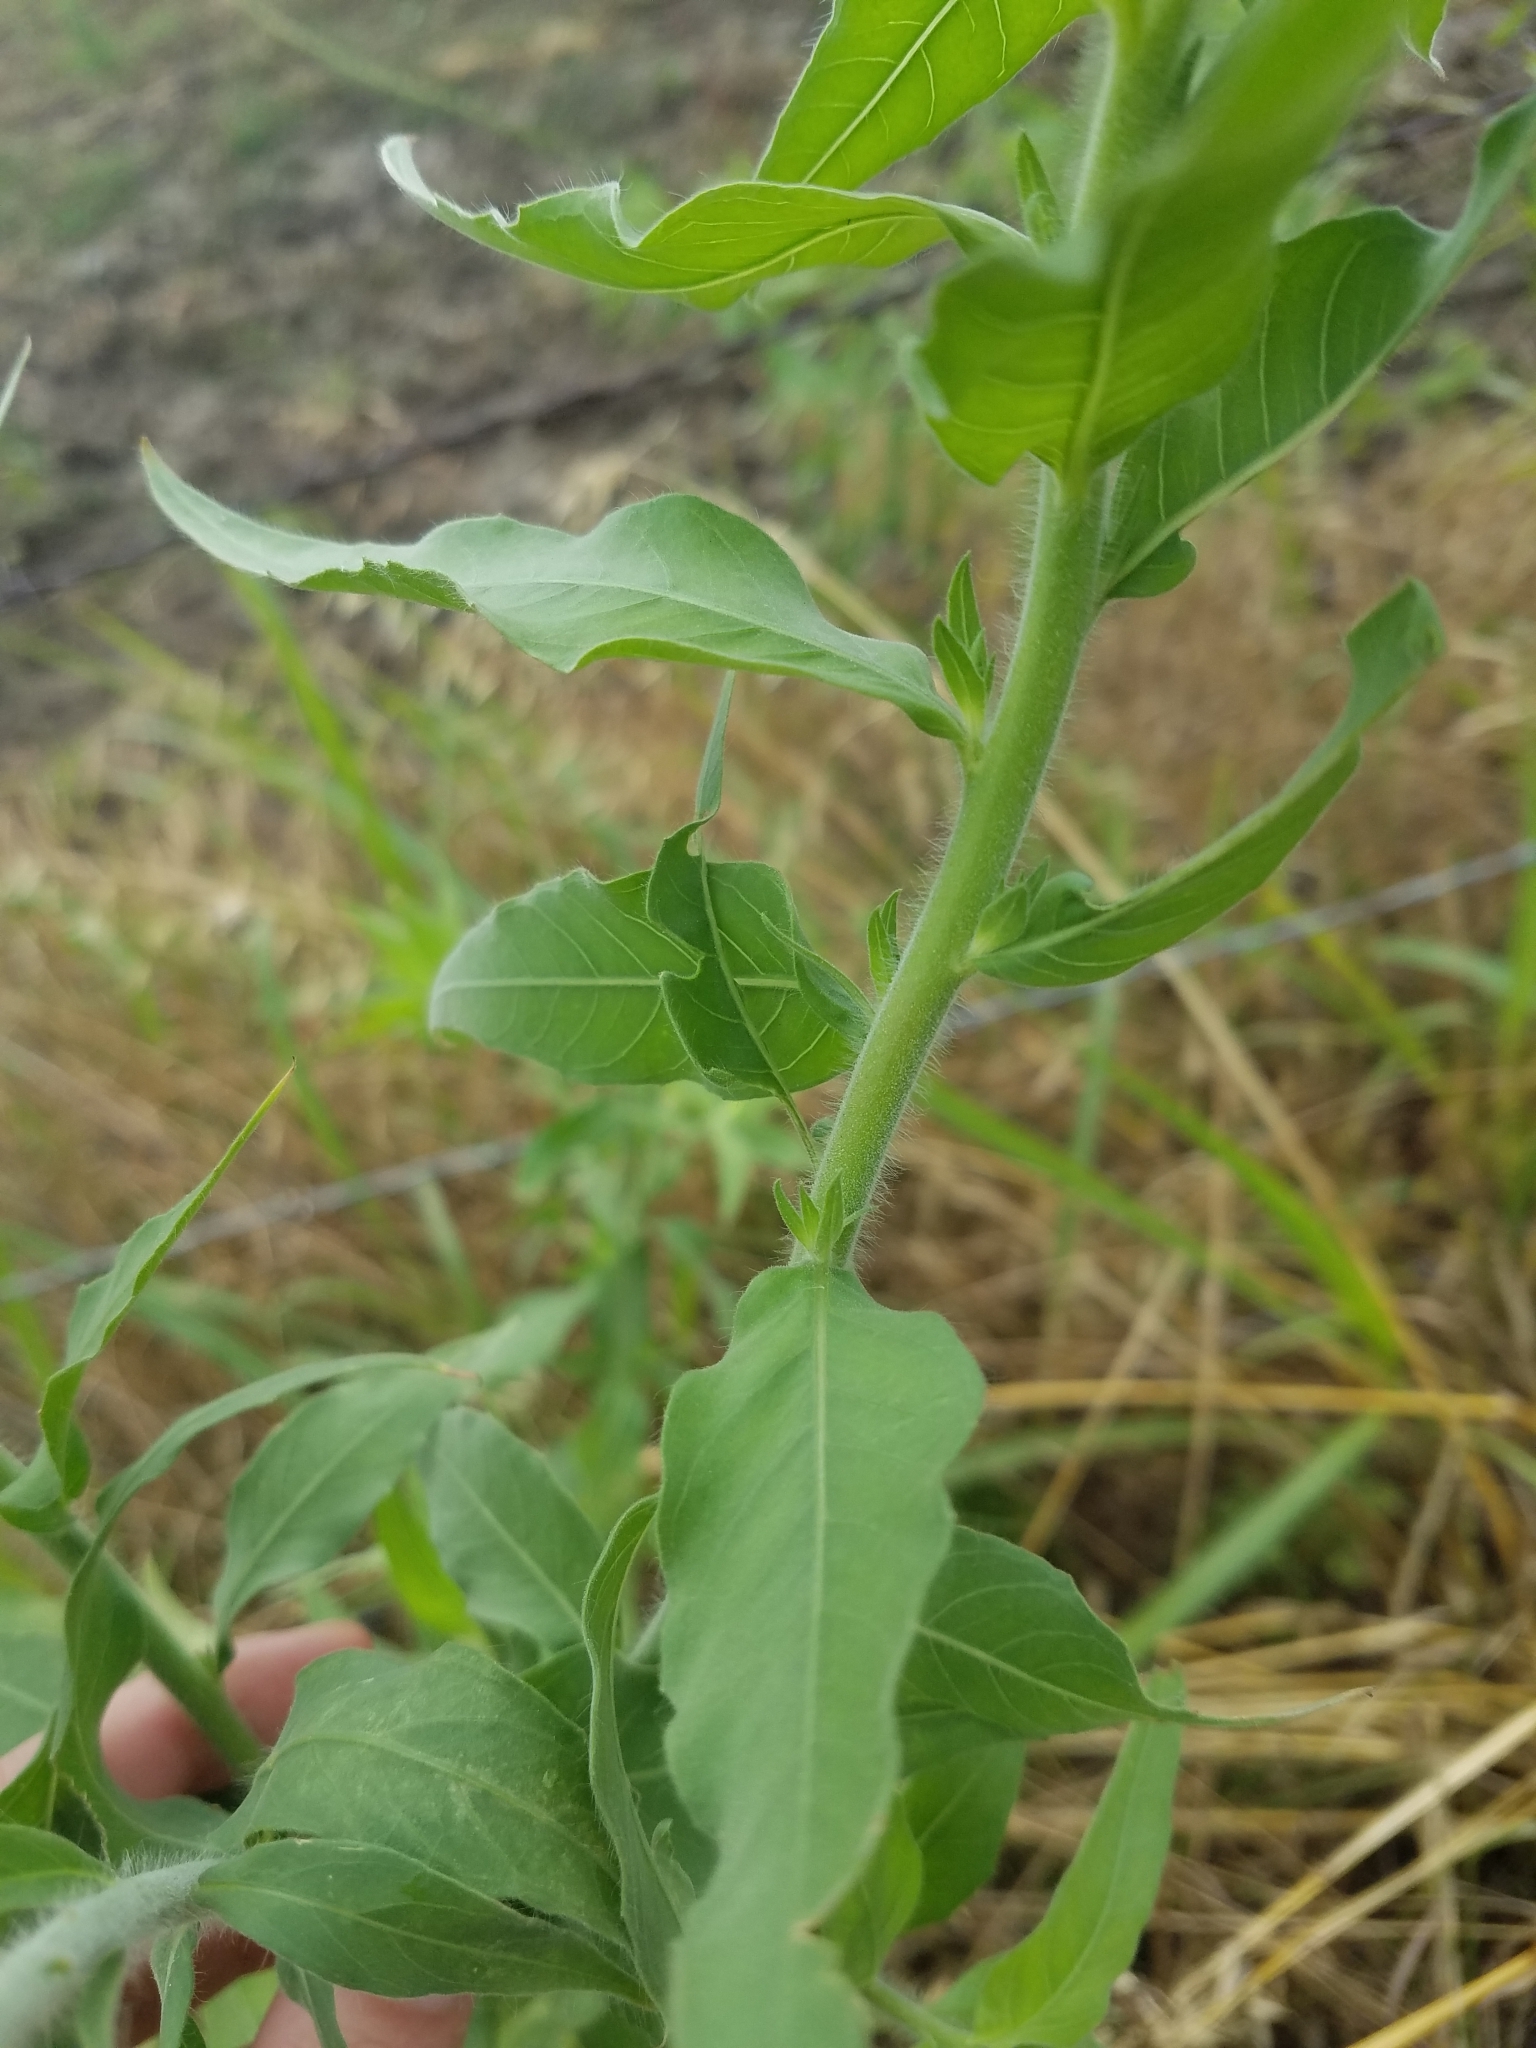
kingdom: Plantae
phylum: Tracheophyta
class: Magnoliopsida
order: Myrtales
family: Onagraceae
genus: Oenothera
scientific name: Oenothera curtiflora
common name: Velvetweed
